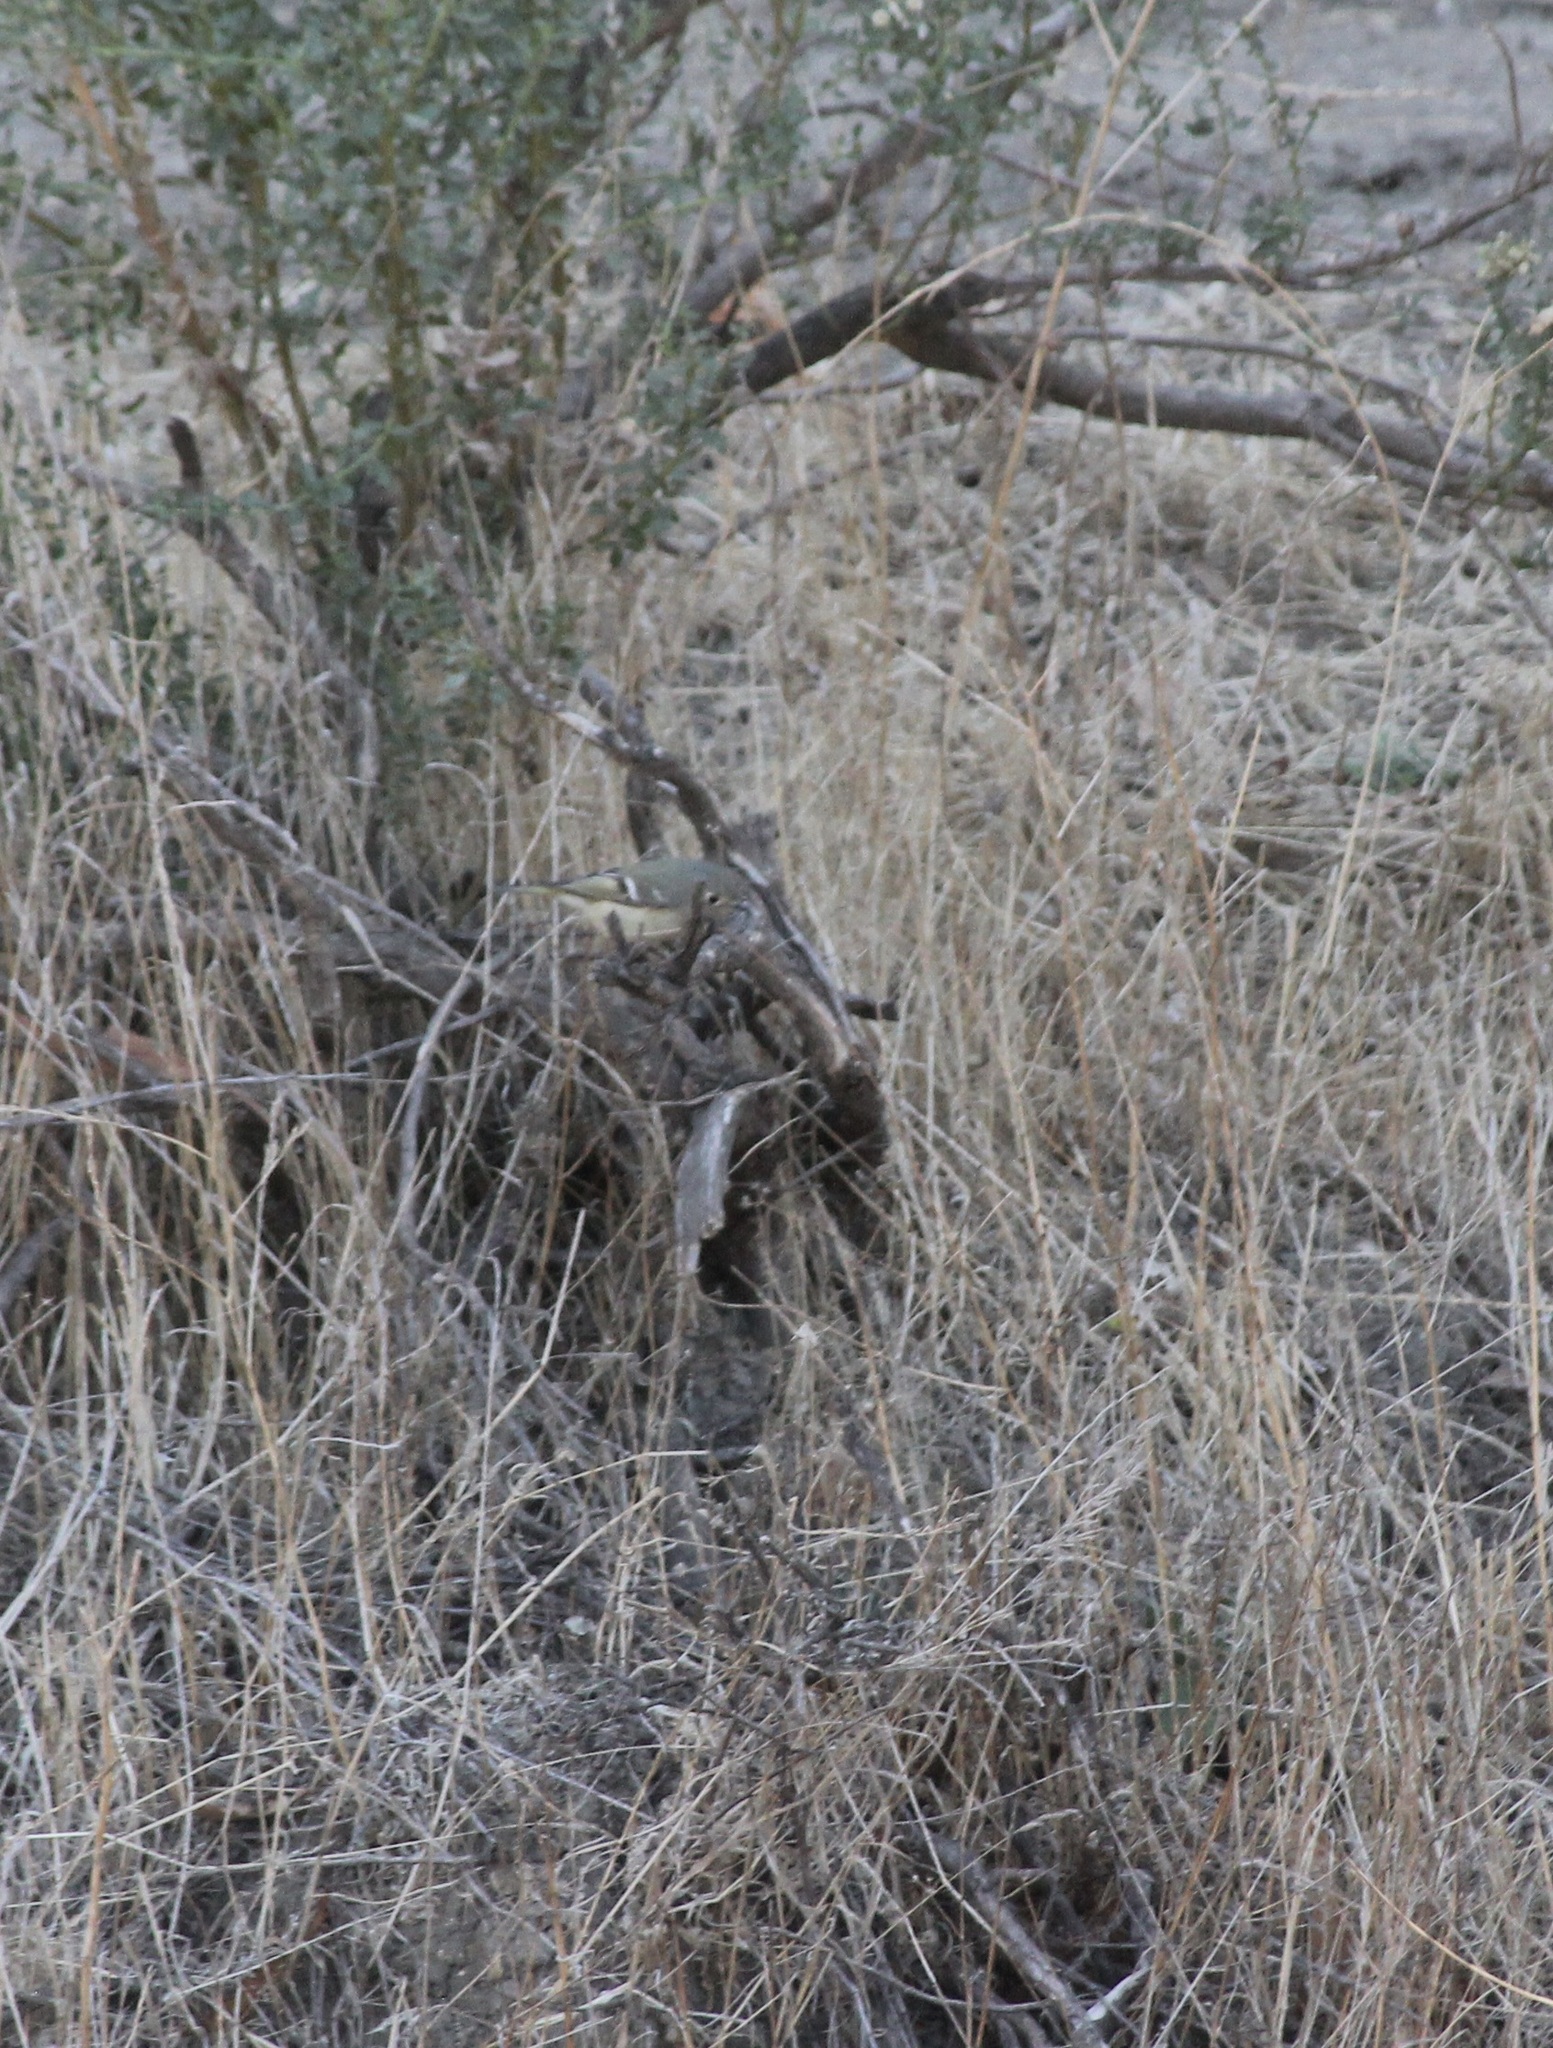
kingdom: Animalia
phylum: Chordata
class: Aves
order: Passeriformes
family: Regulidae
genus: Regulus
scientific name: Regulus calendula
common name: Ruby-crowned kinglet
